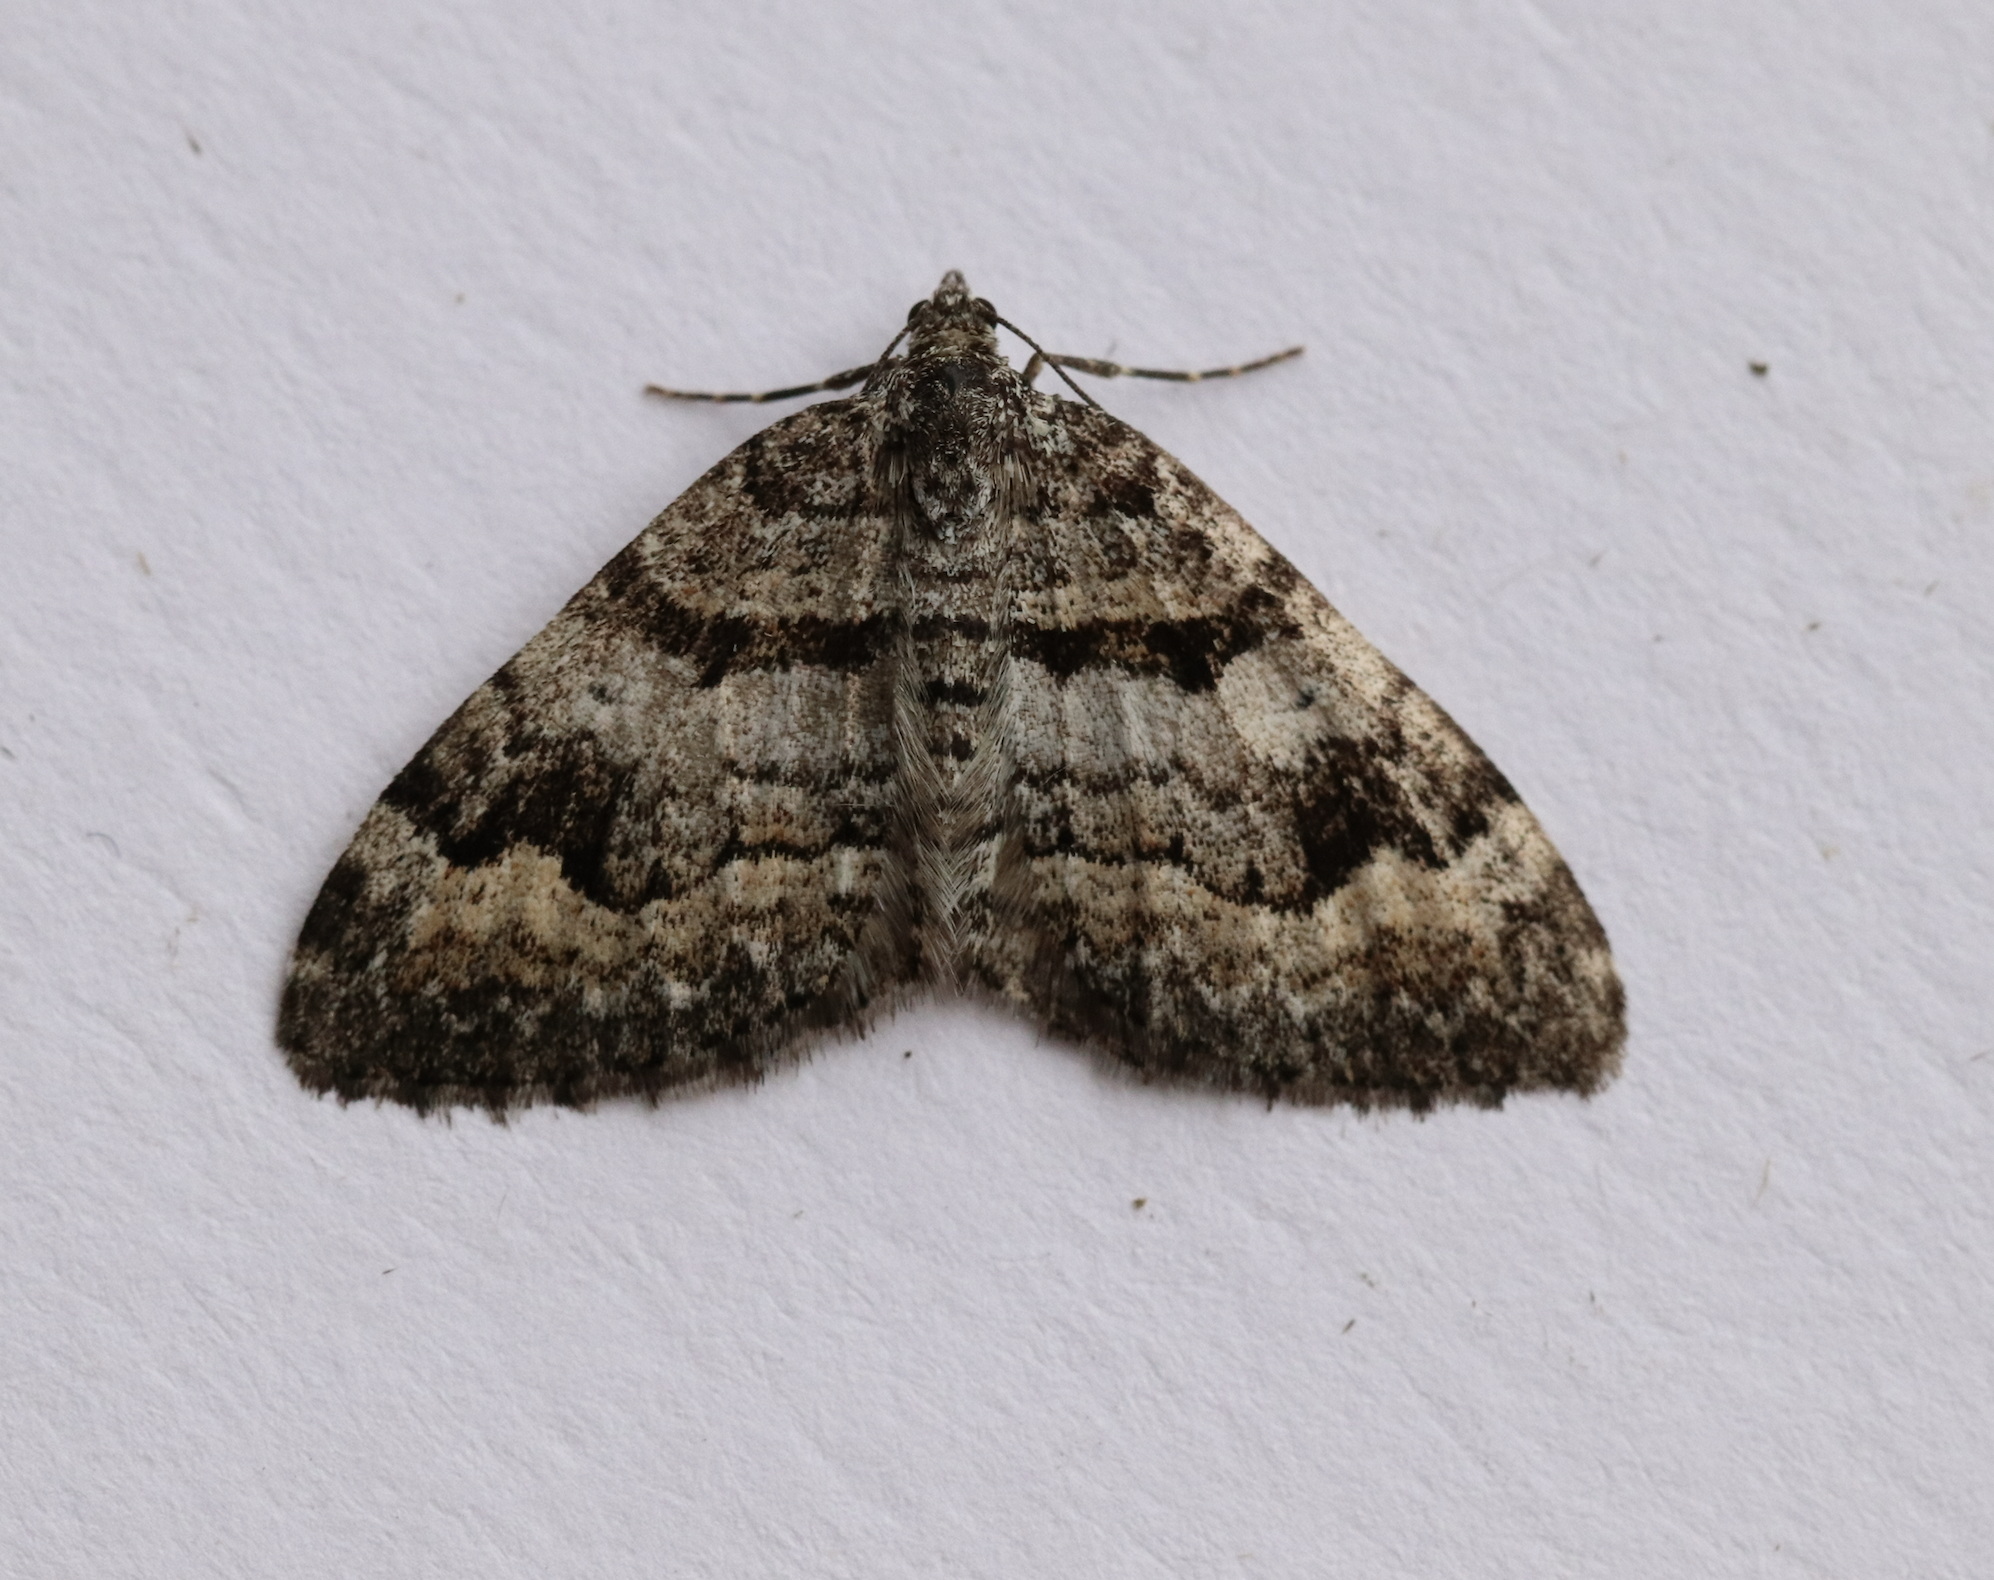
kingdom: Animalia
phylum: Arthropoda
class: Insecta
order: Lepidoptera
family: Geometridae
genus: Xanthorhoe
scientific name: Xanthorhoe abrasaria
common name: Northern carpet
